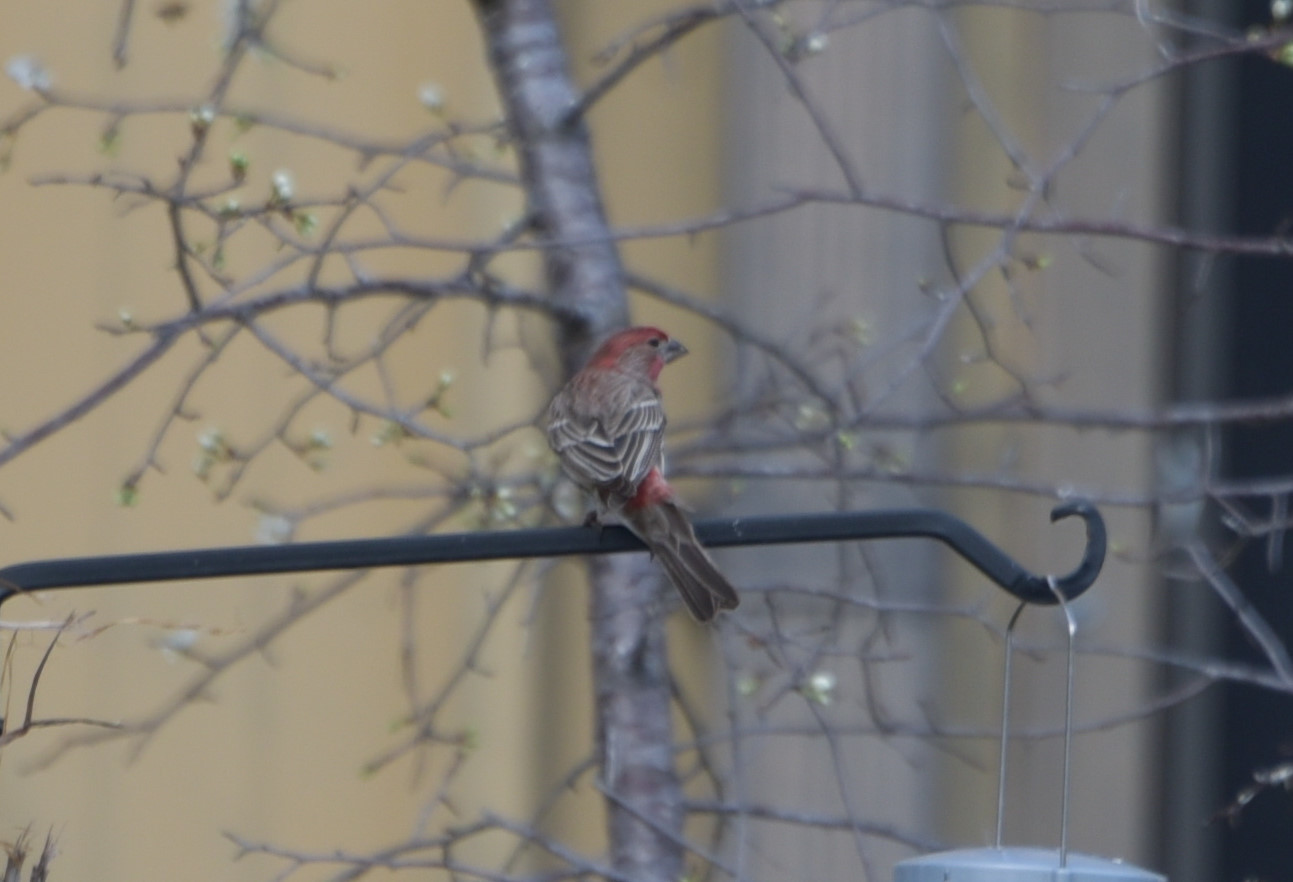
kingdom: Animalia
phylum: Chordata
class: Aves
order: Passeriformes
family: Fringillidae
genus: Haemorhous
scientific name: Haemorhous mexicanus
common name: House finch
